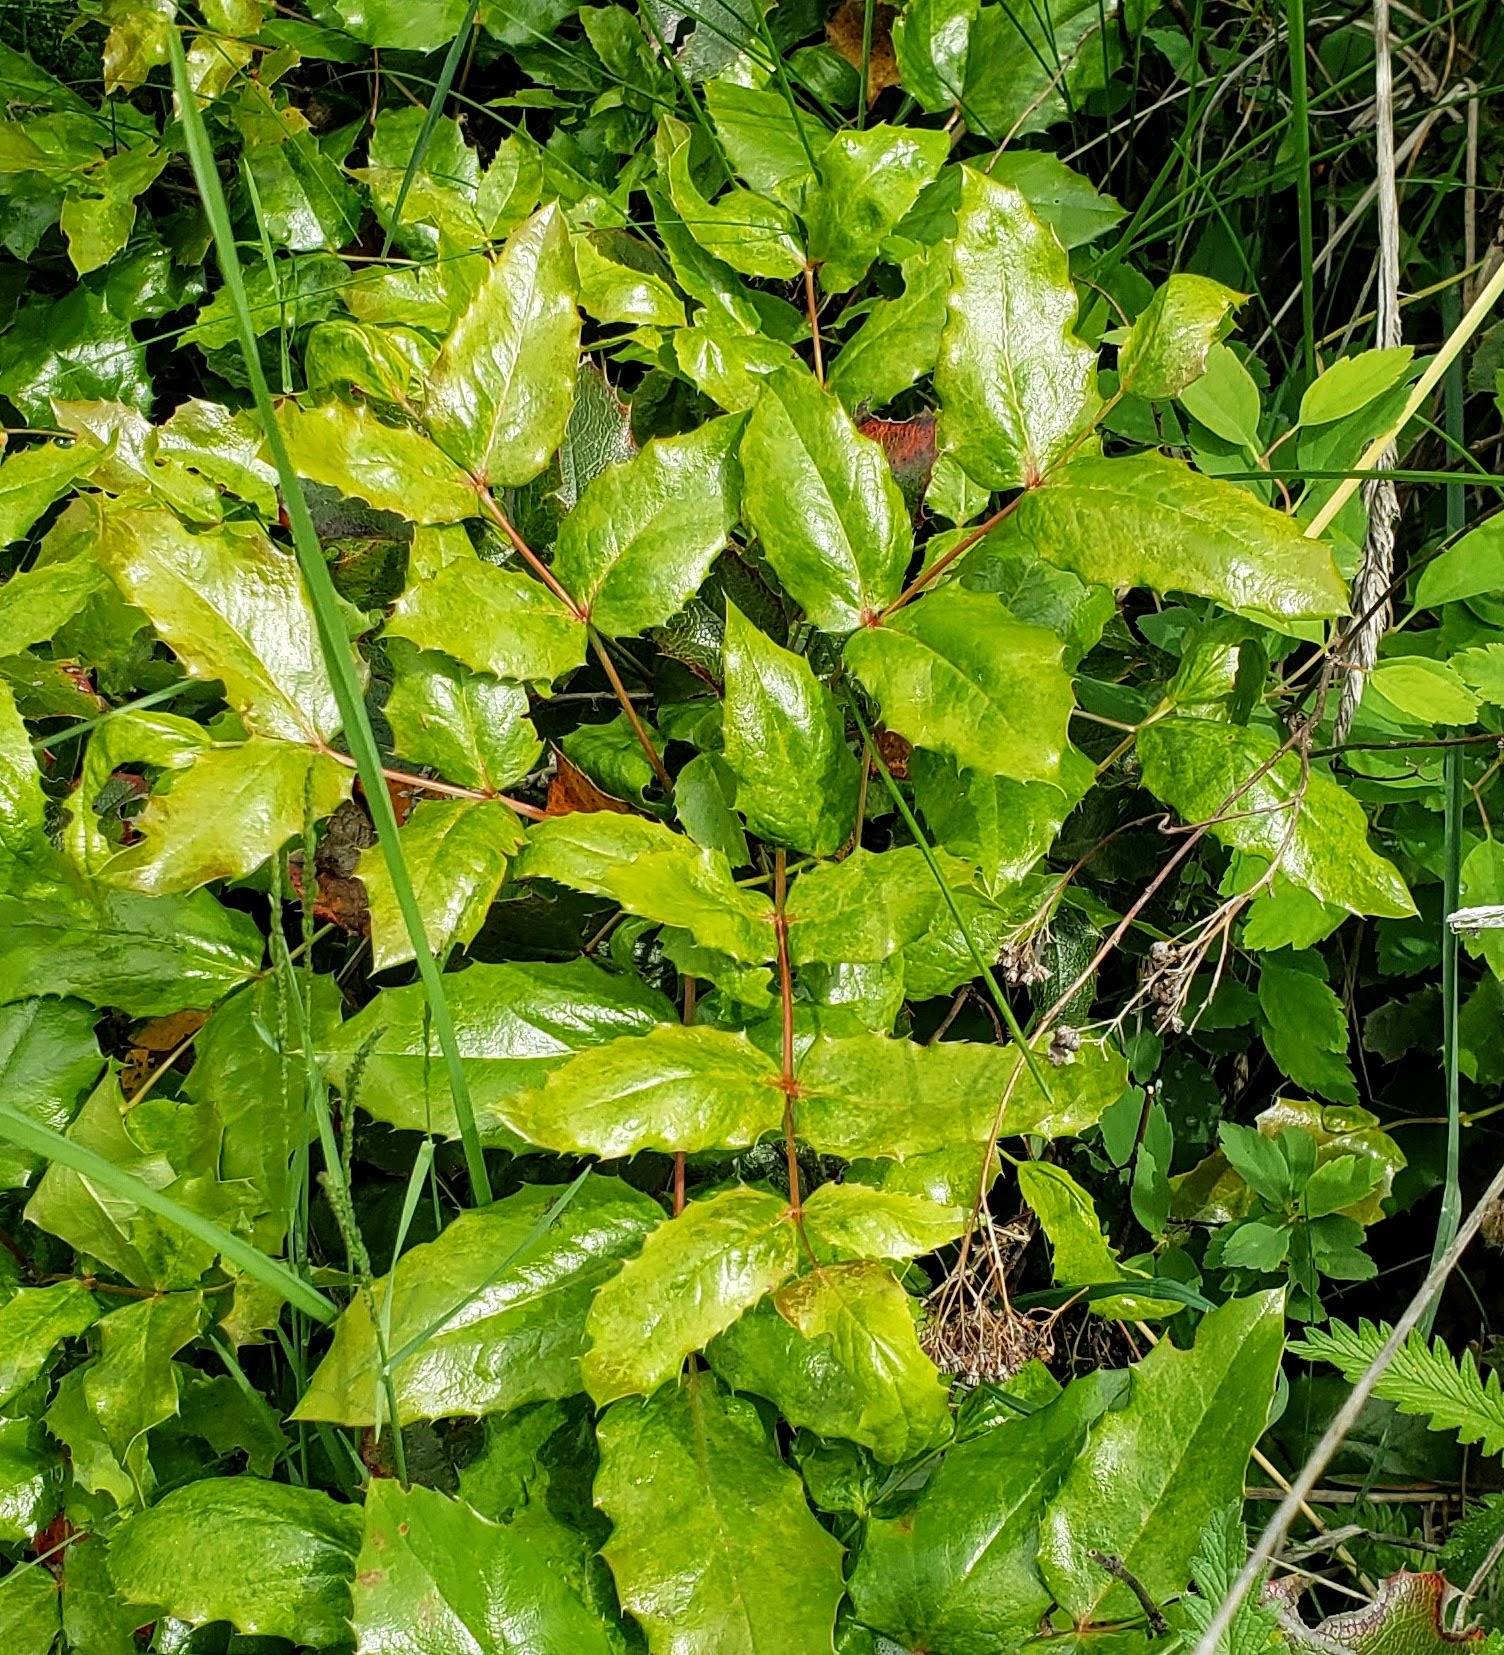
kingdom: Plantae
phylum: Tracheophyta
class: Magnoliopsida
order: Ranunculales
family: Berberidaceae
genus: Mahonia
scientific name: Mahonia aquifolium
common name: Oregon-grape
